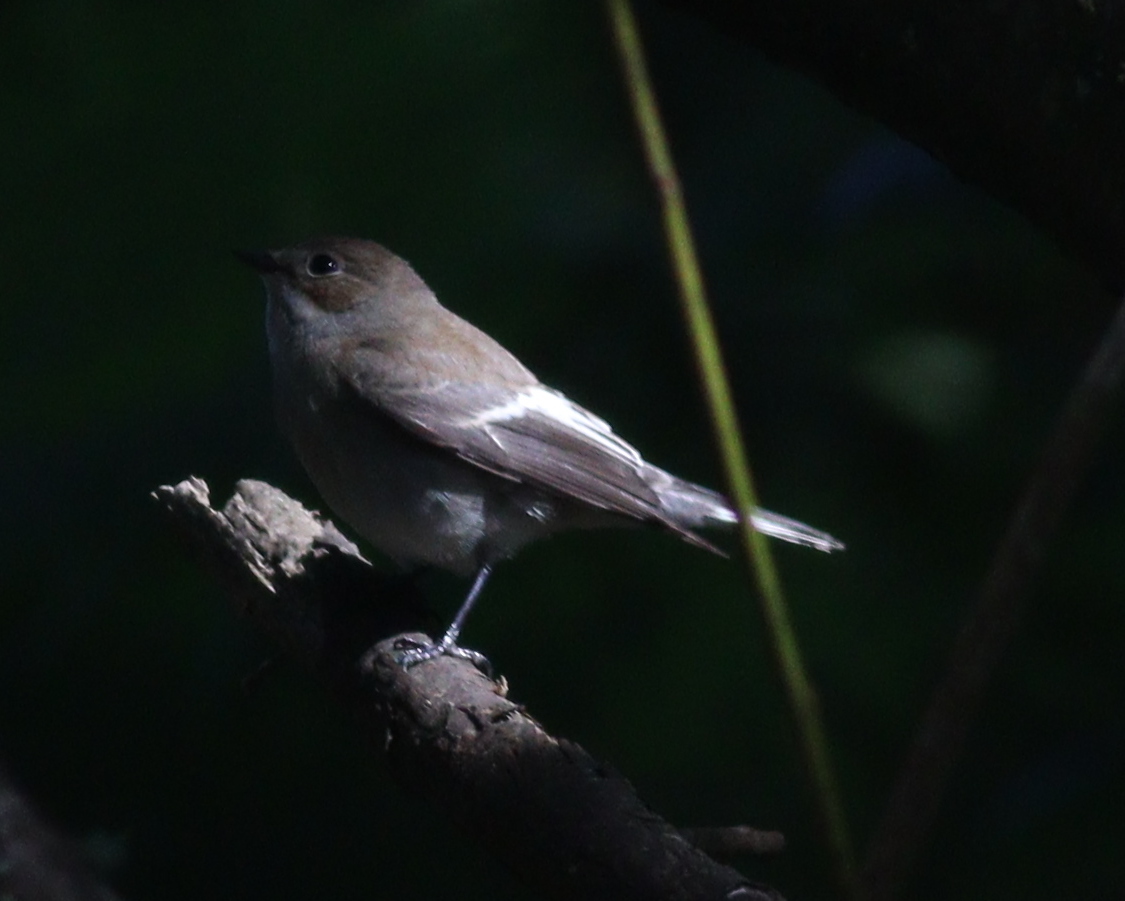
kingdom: Animalia
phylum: Chordata
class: Aves
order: Passeriformes
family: Muscicapidae
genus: Ficedula
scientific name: Ficedula hypoleuca
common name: European pied flycatcher
